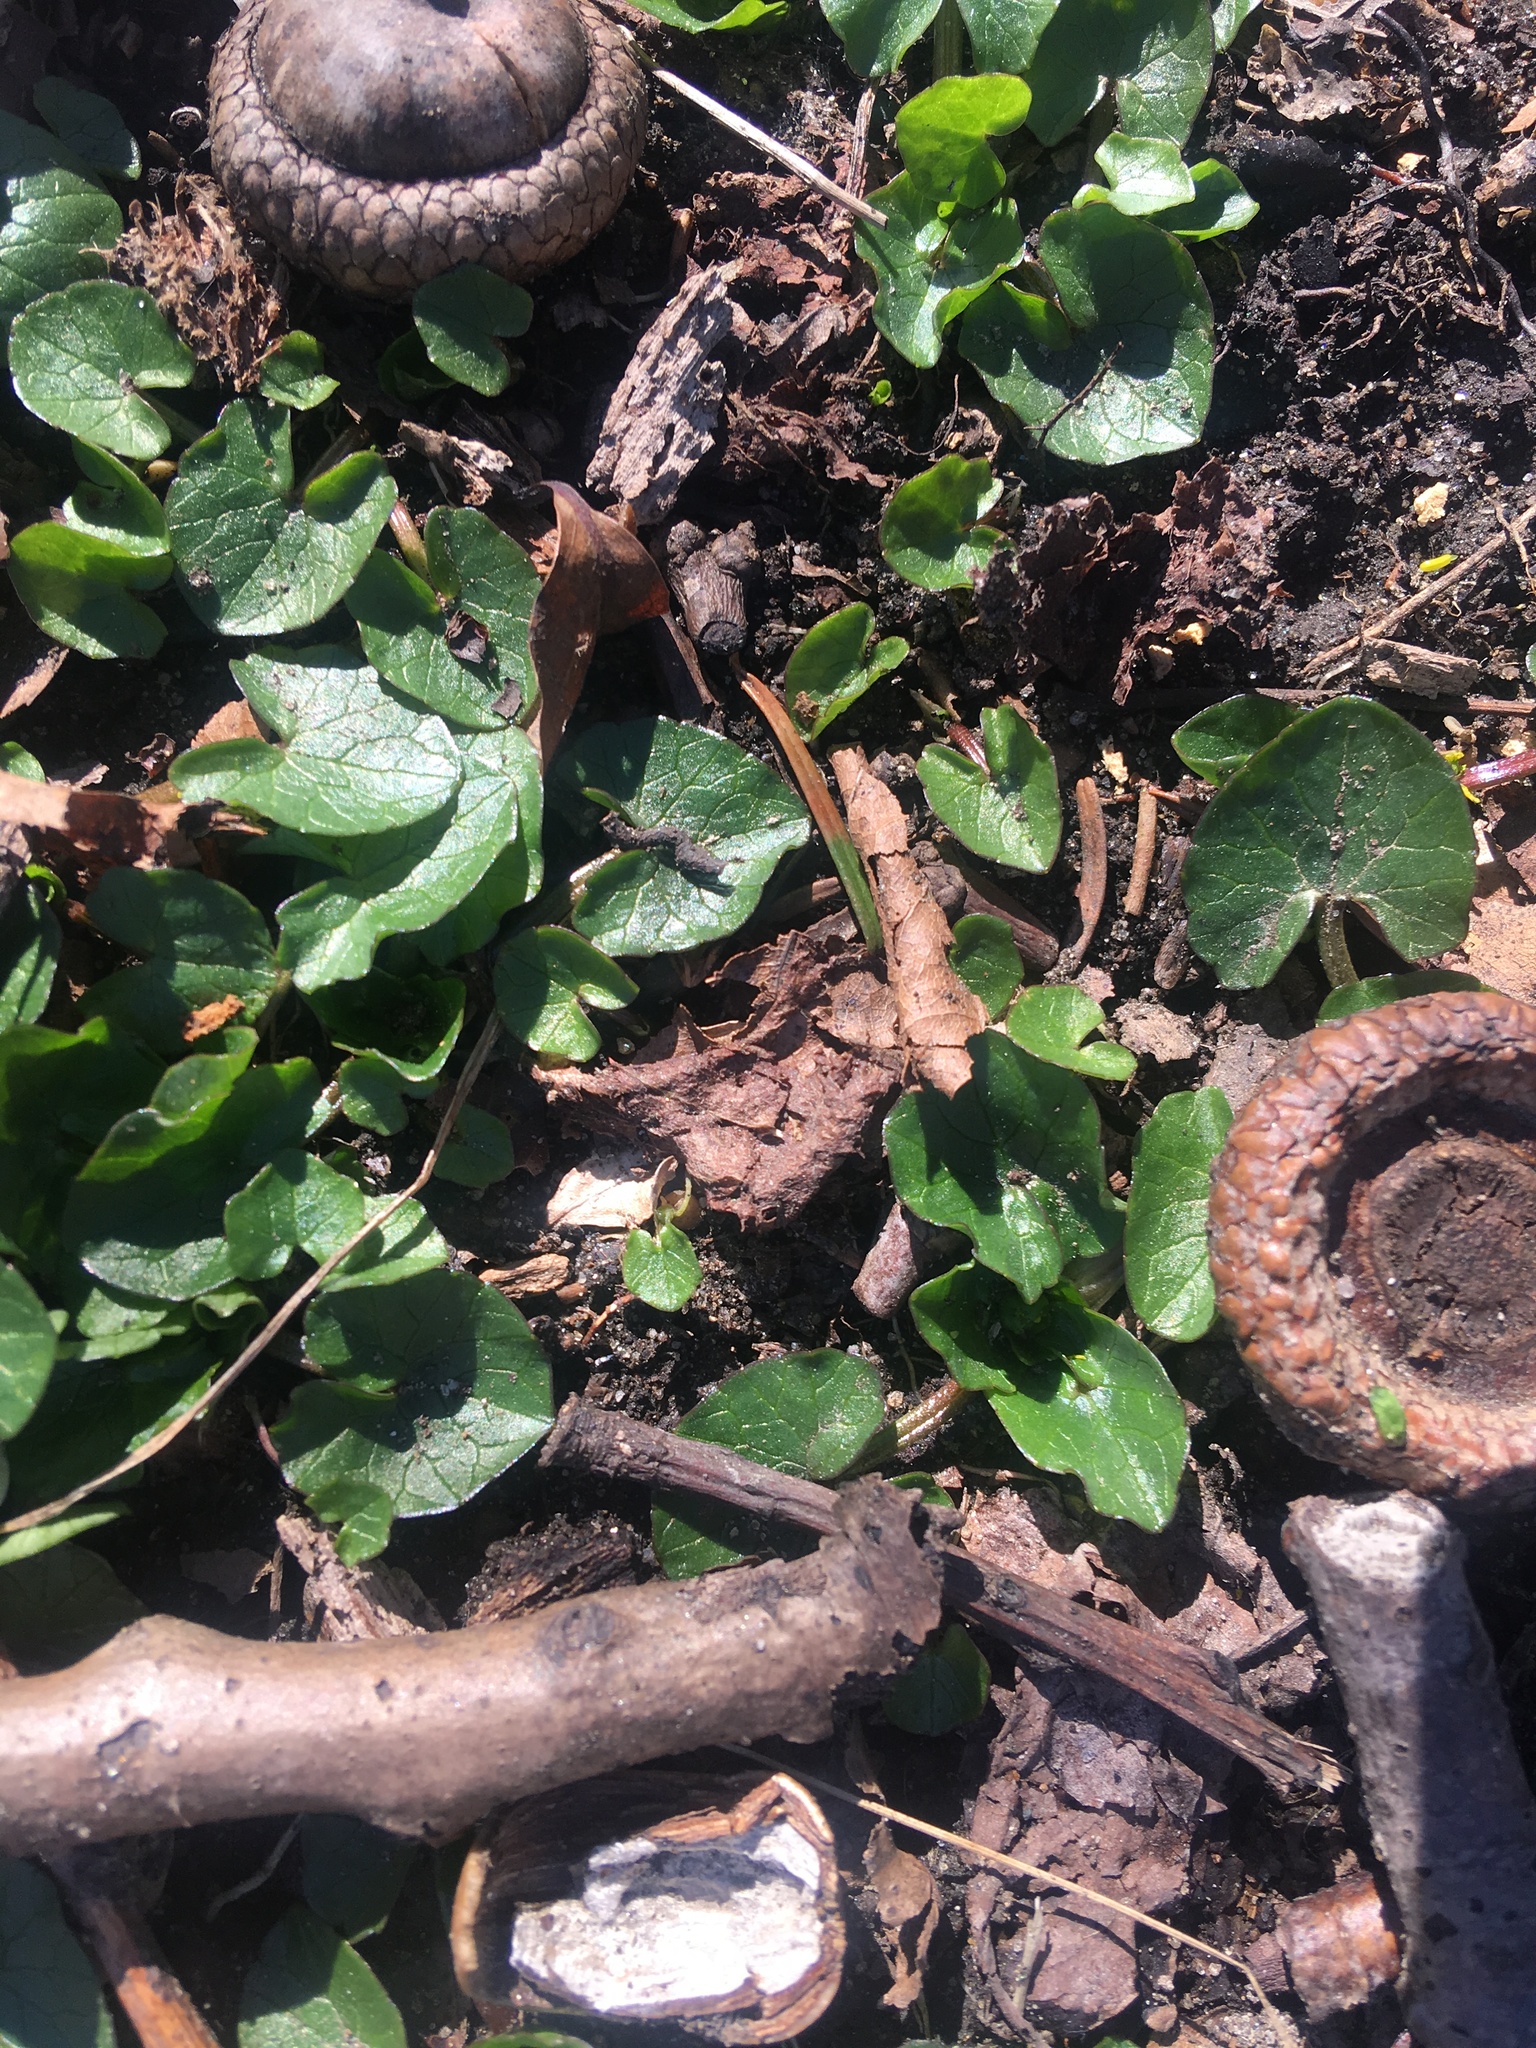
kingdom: Plantae
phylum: Tracheophyta
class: Magnoliopsida
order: Ranunculales
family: Ranunculaceae
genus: Ficaria
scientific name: Ficaria verna
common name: Lesser celandine
